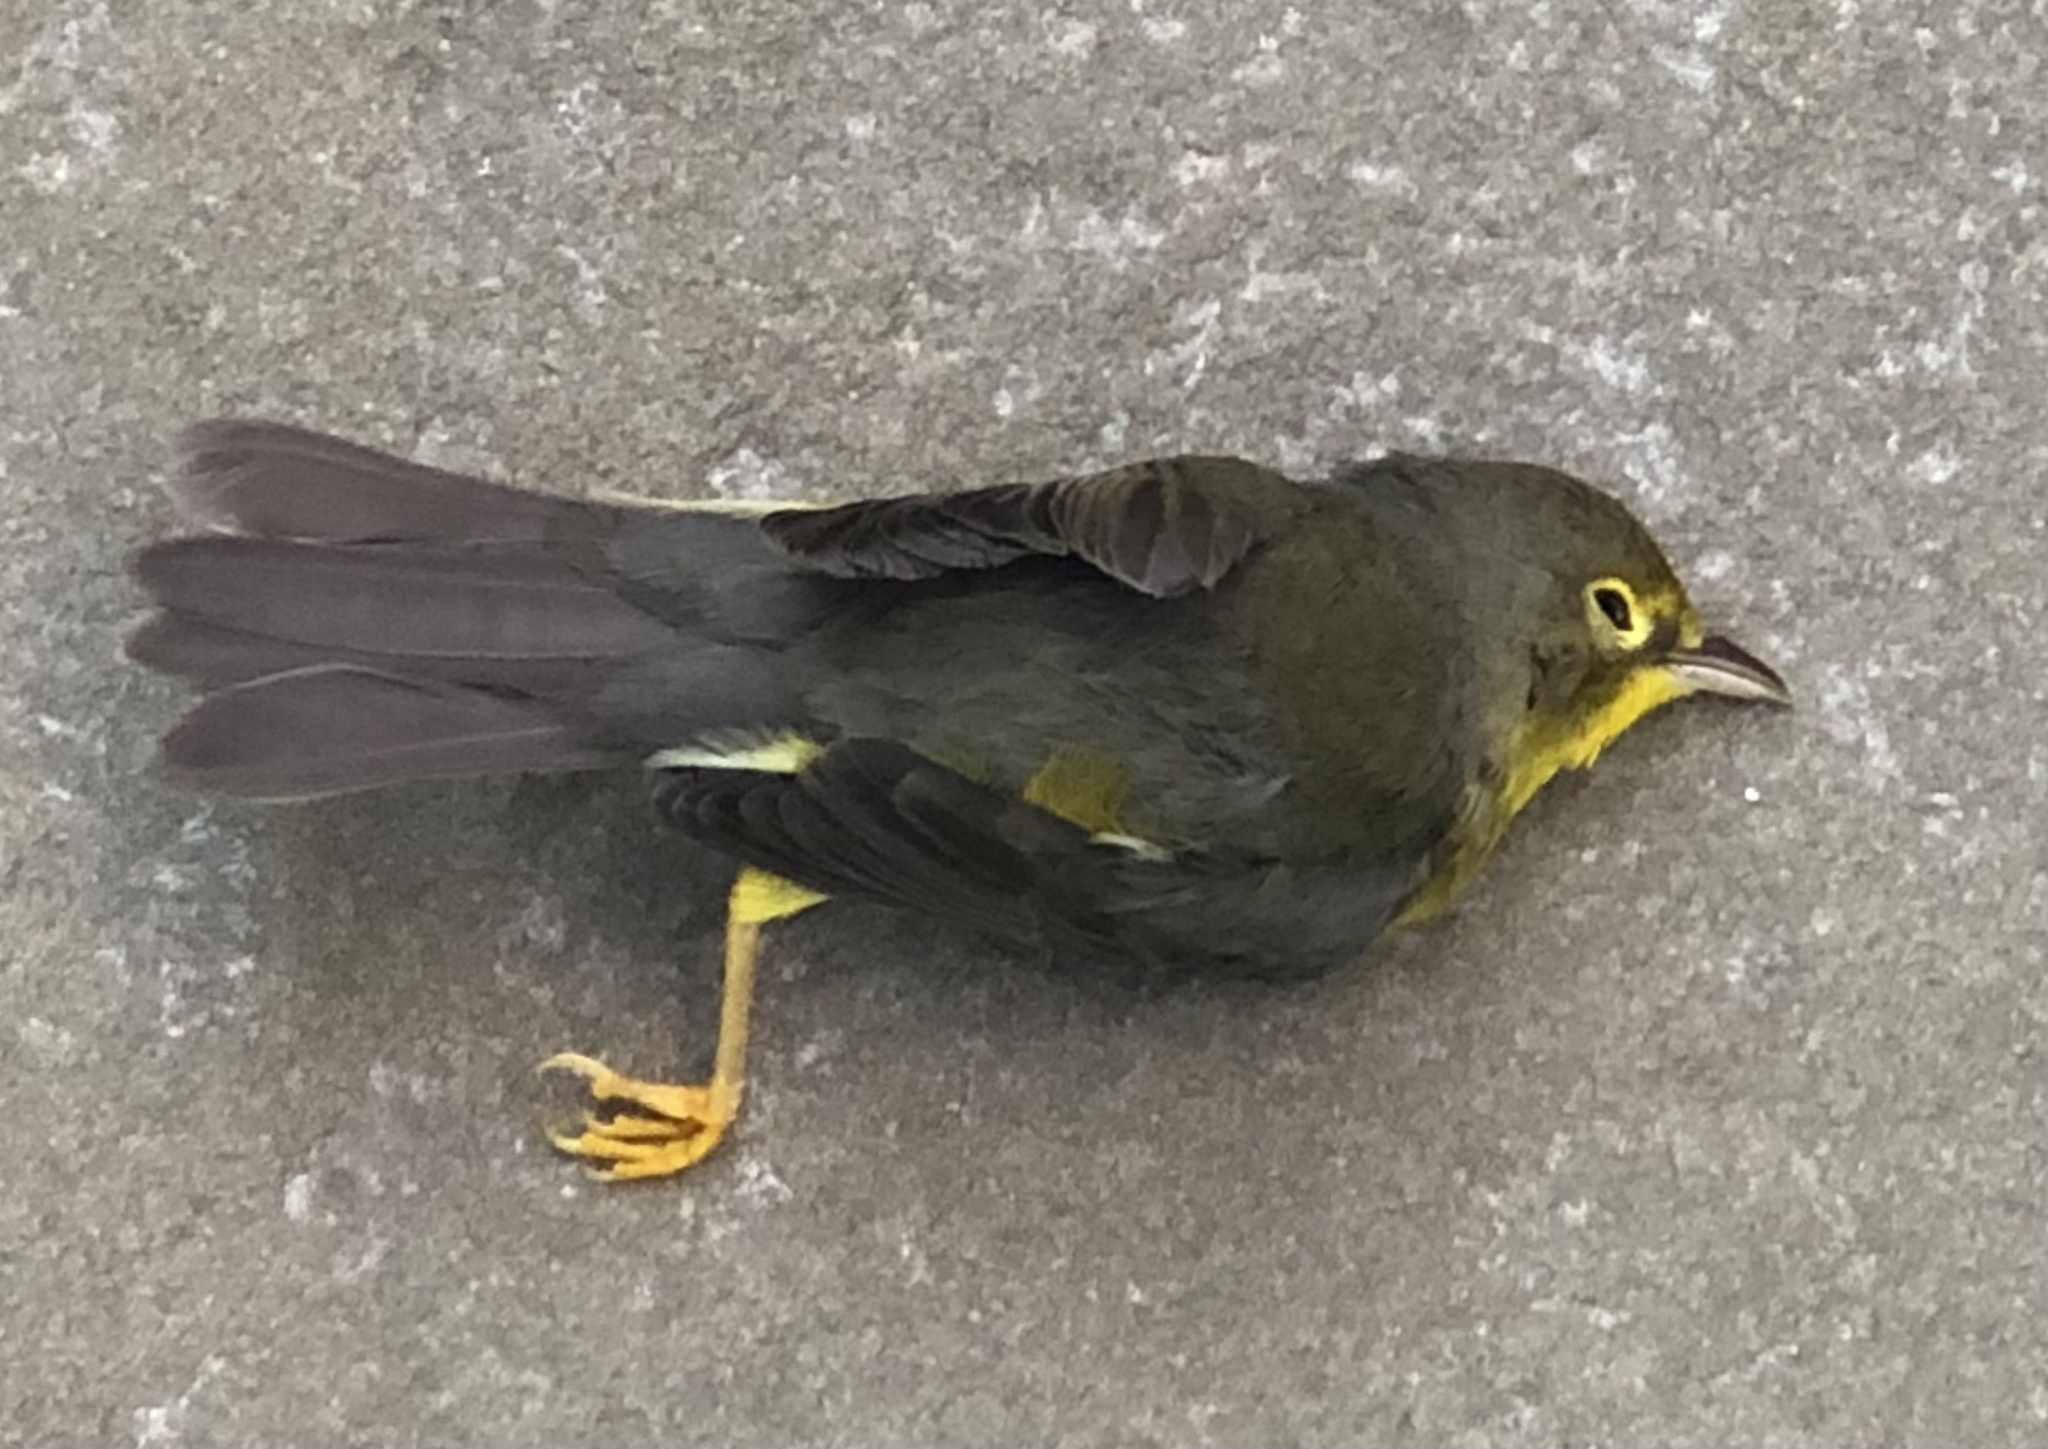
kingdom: Animalia
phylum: Chordata
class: Aves
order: Passeriformes
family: Parulidae
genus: Cardellina
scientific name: Cardellina canadensis
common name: Canada warbler
